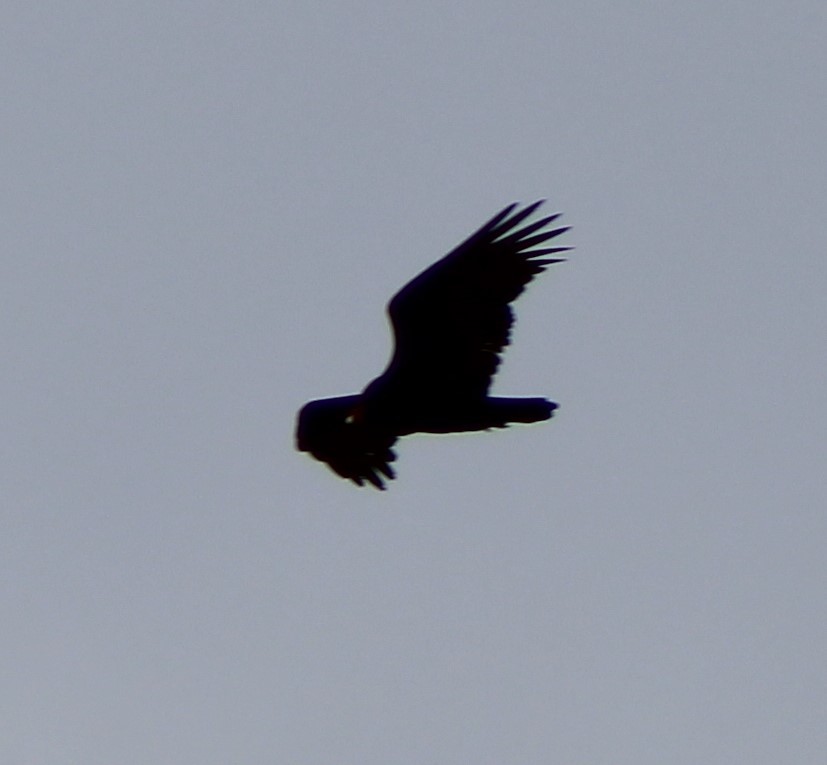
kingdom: Animalia
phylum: Chordata
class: Aves
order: Accipitriformes
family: Cathartidae
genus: Cathartes
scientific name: Cathartes aura
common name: Turkey vulture
